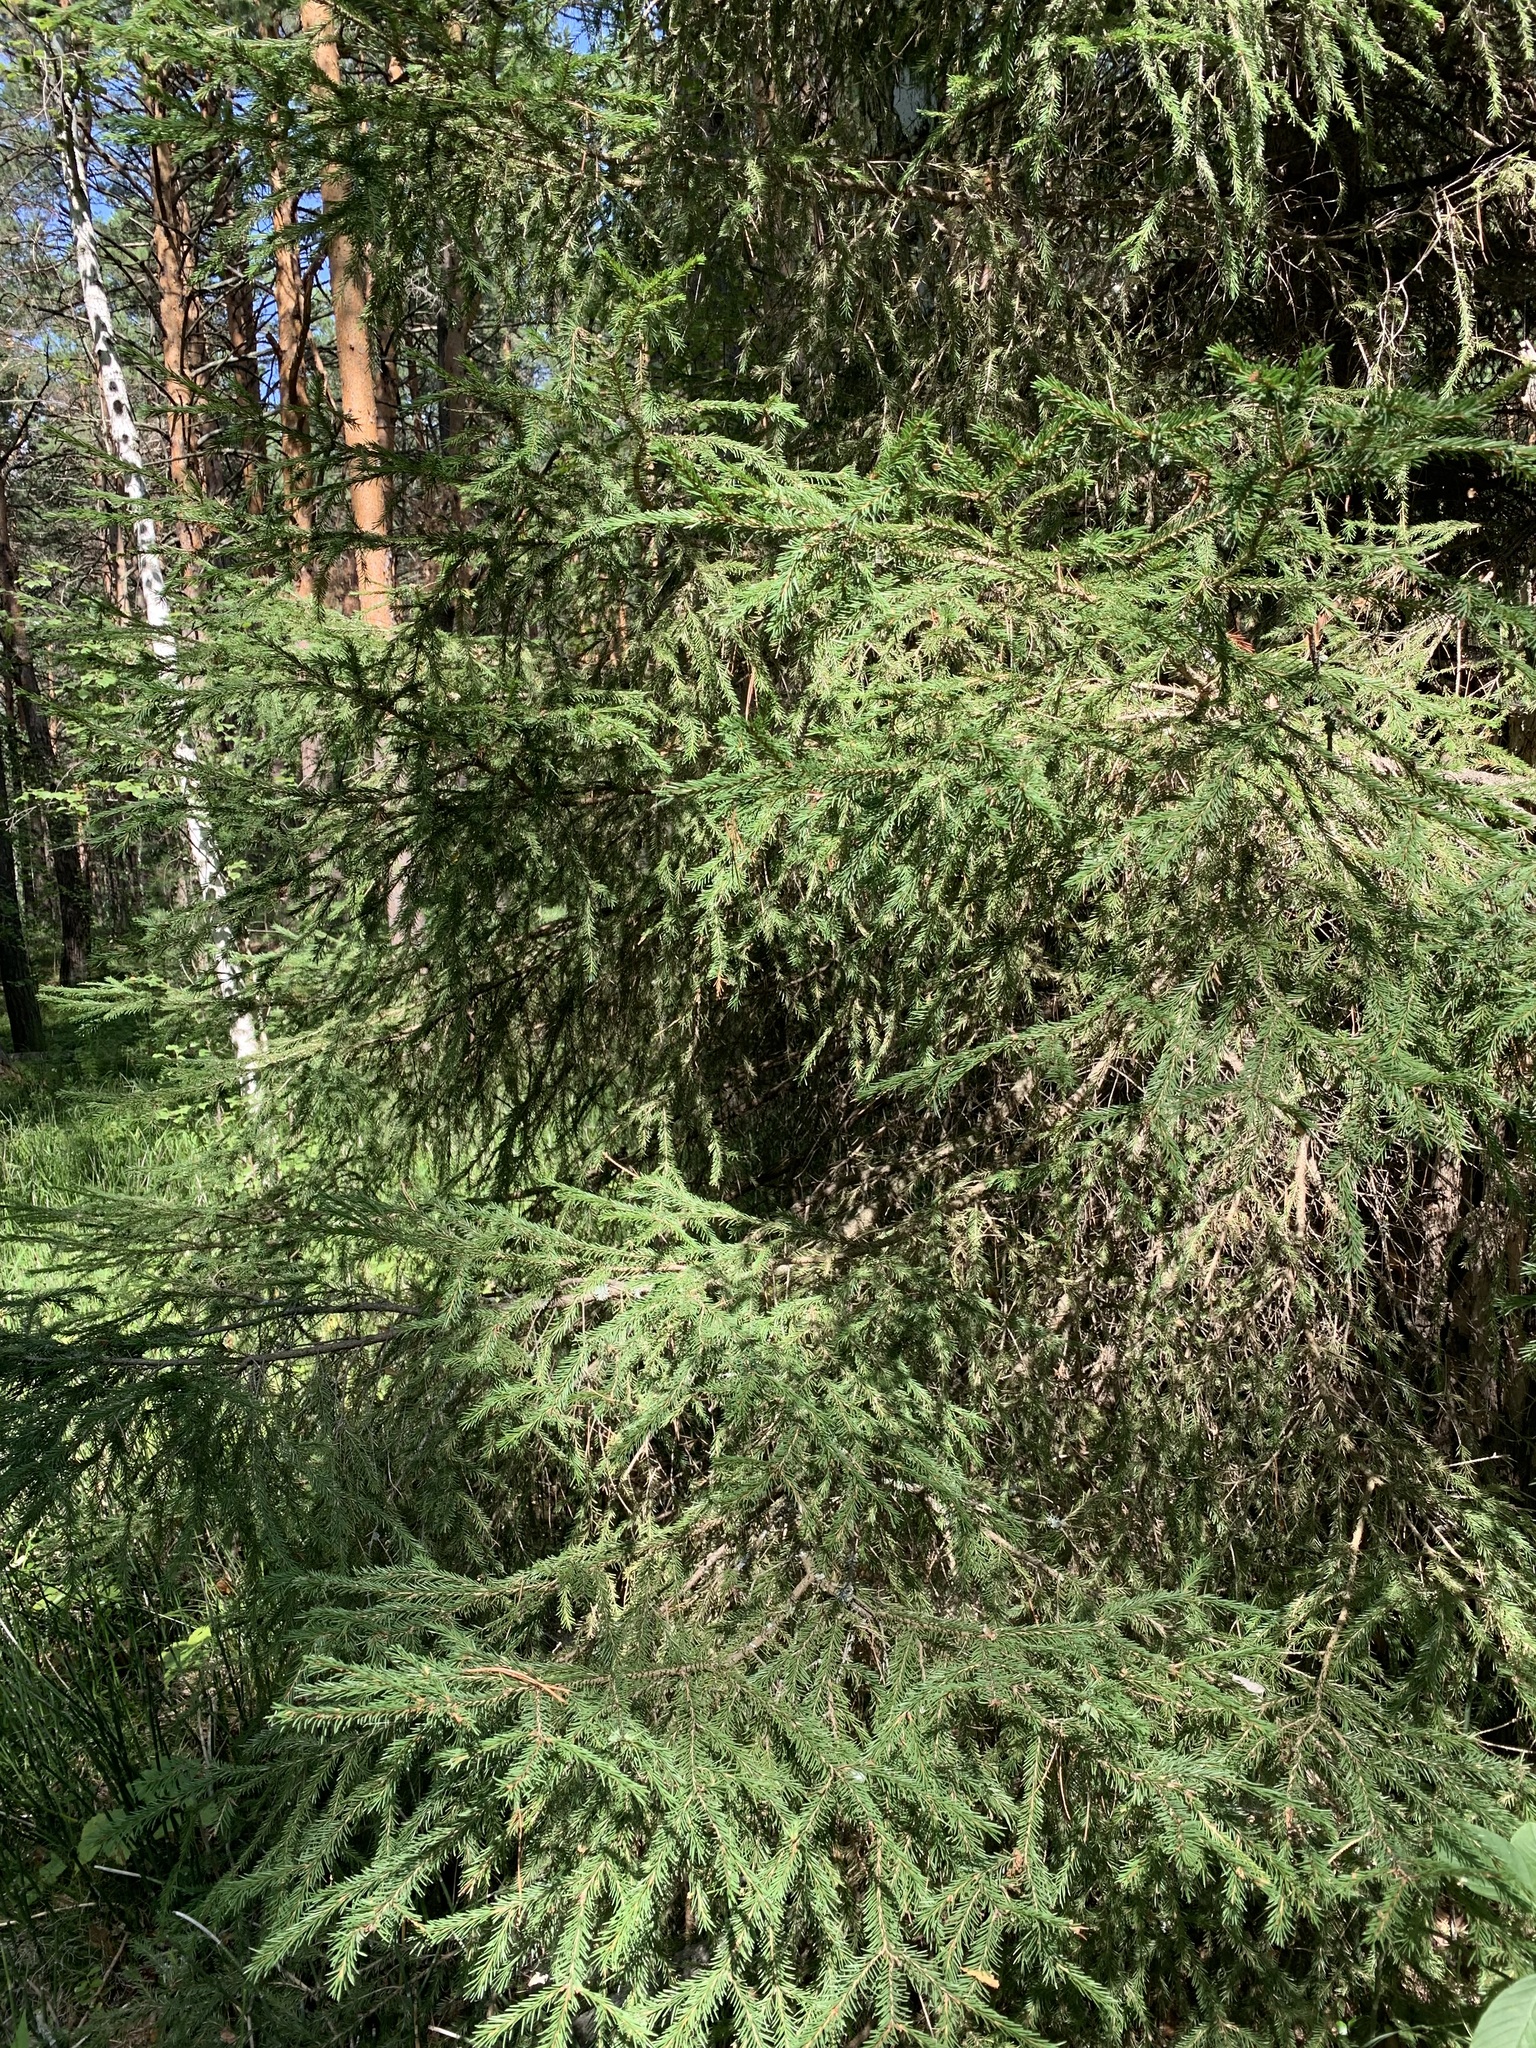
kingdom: Plantae
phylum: Tracheophyta
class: Pinopsida
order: Pinales
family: Pinaceae
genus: Picea
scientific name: Picea obovata
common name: Siberian spruce
